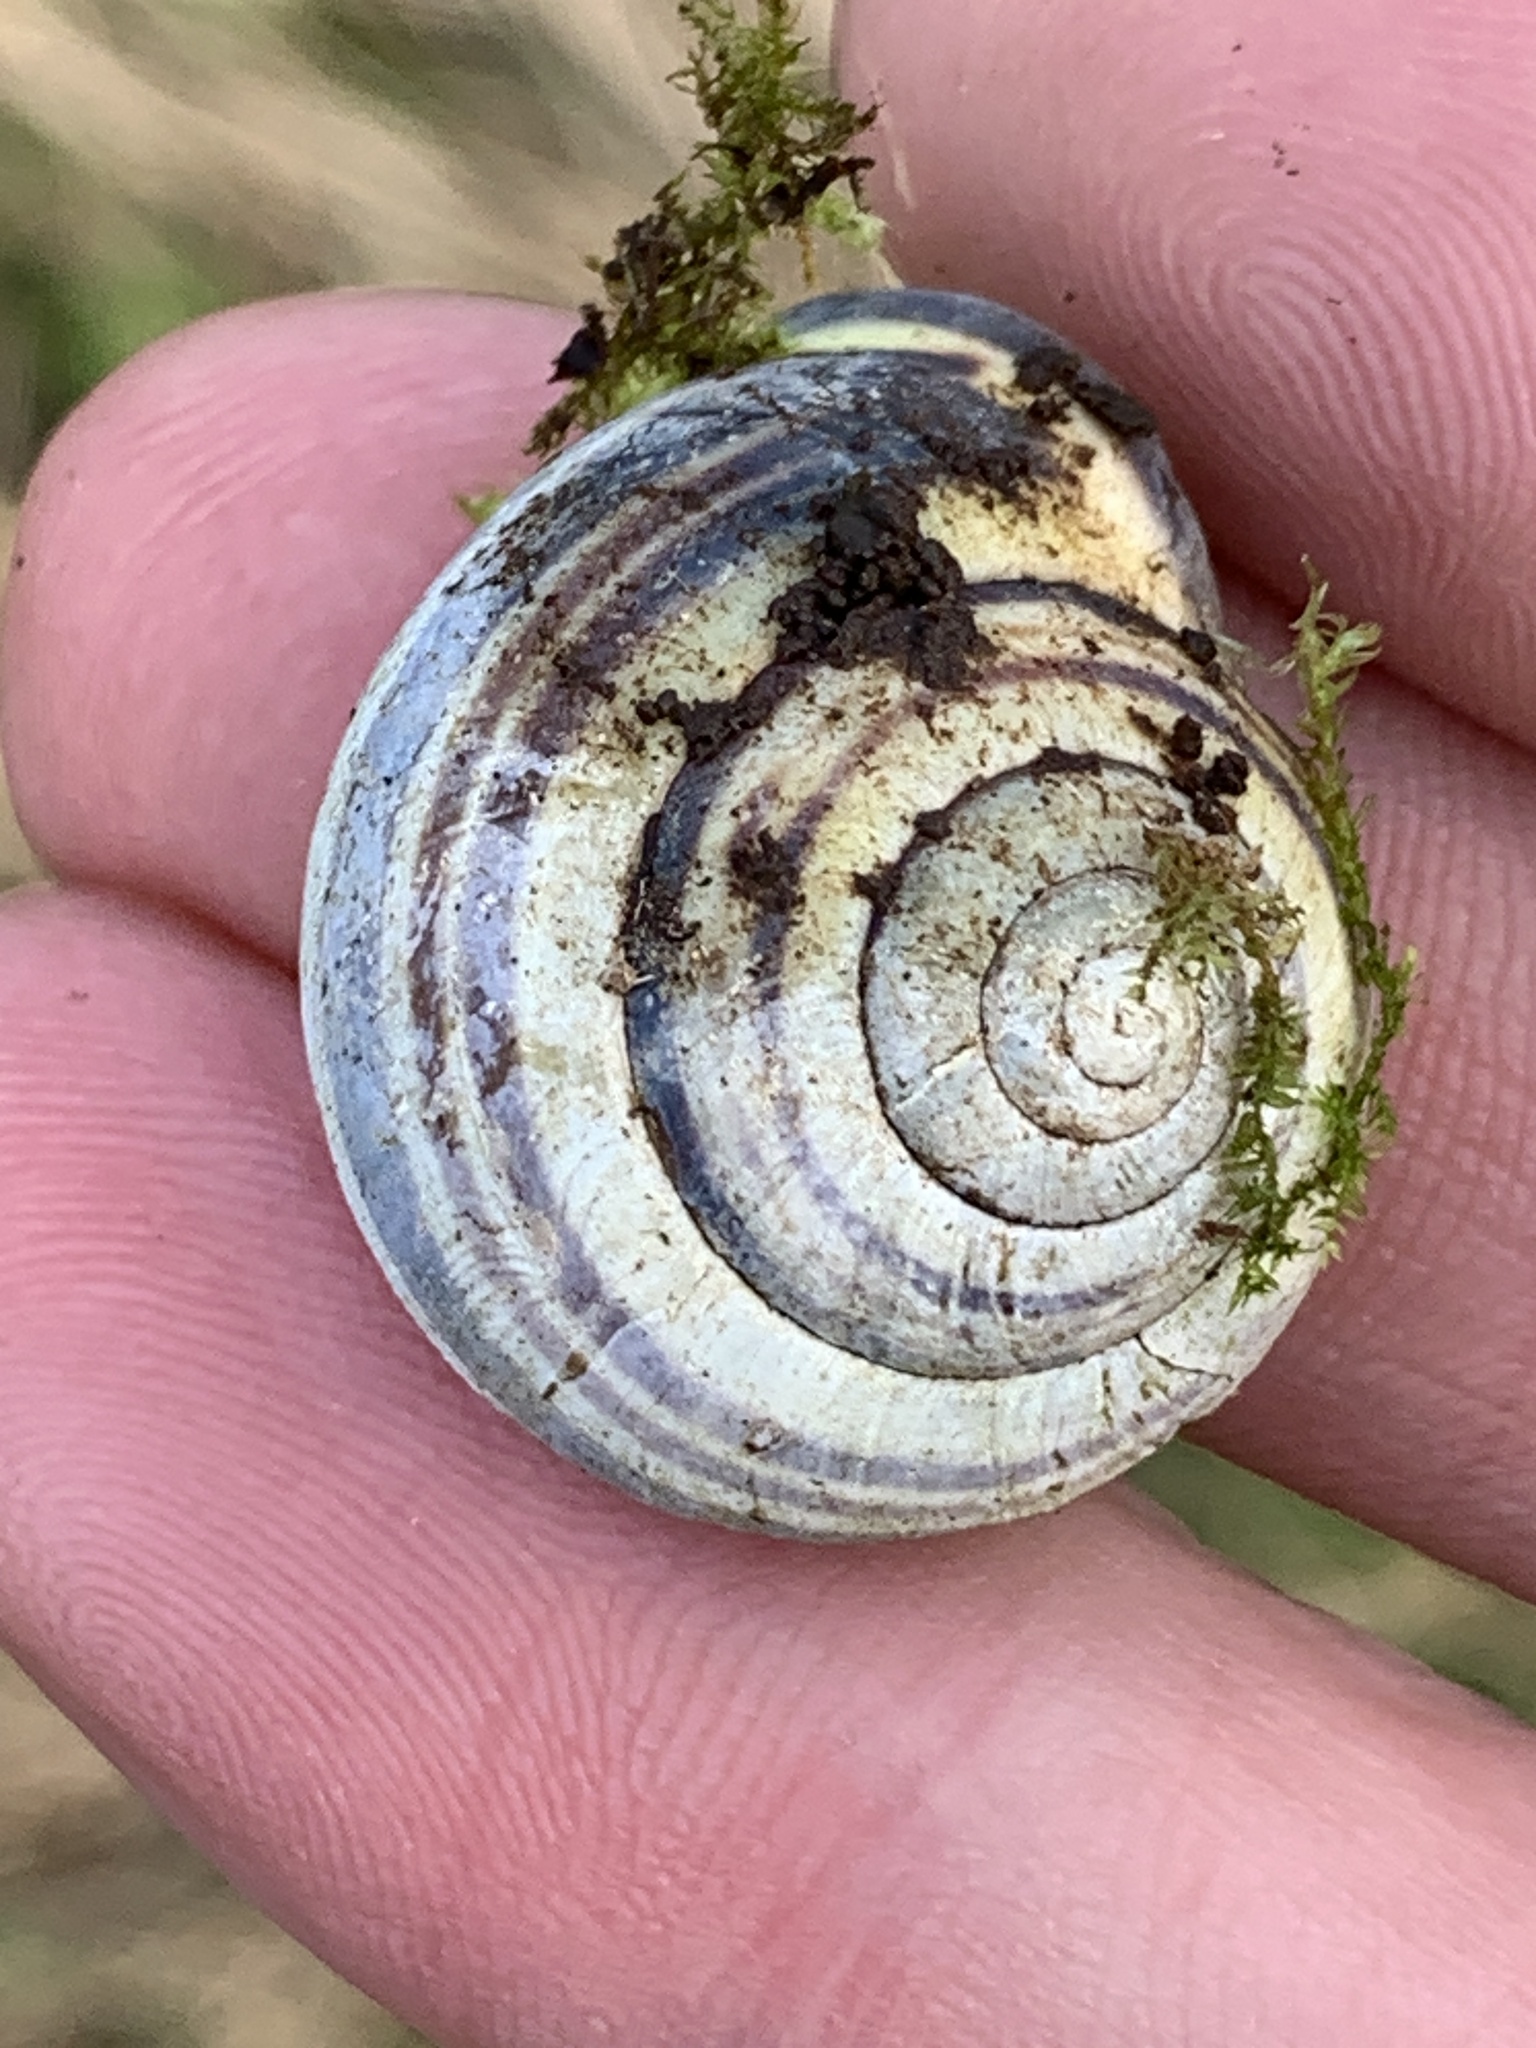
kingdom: Animalia
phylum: Mollusca
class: Gastropoda
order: Stylommatophora
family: Helicidae
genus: Cepaea
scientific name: Cepaea nemoralis
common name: Grovesnail
